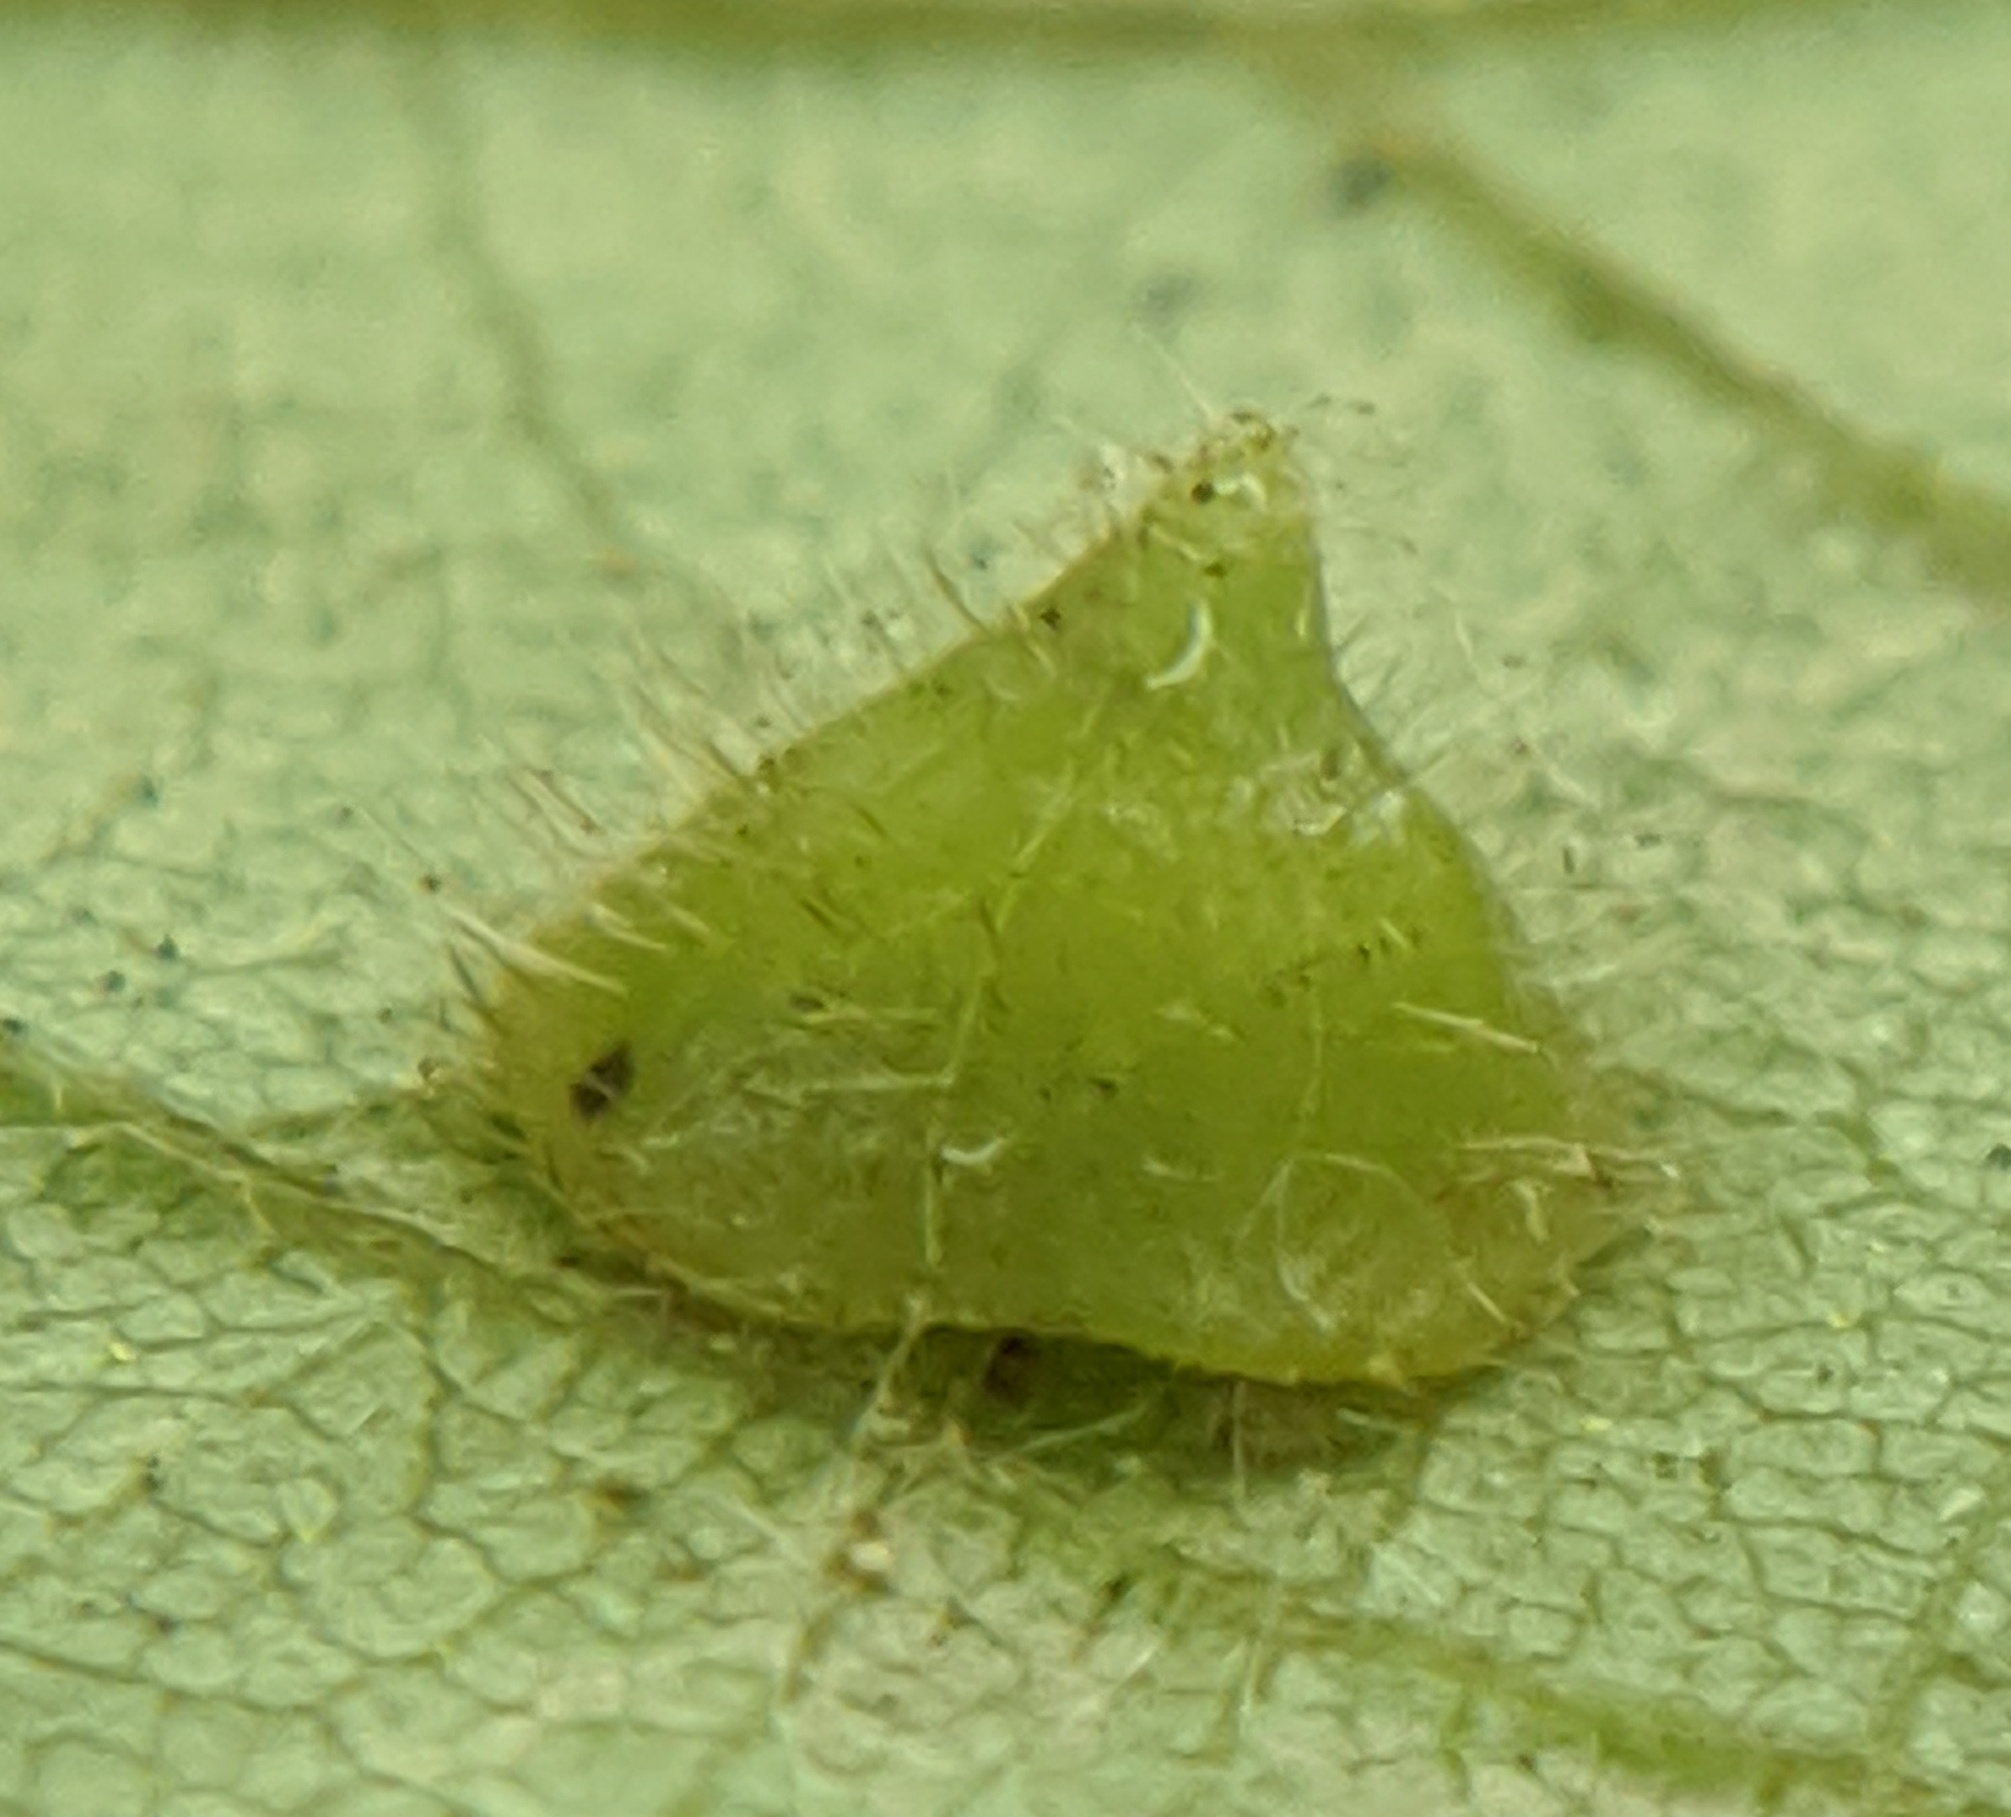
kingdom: Animalia
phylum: Arthropoda
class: Insecta
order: Diptera
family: Cecidomyiidae
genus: Caryomyia
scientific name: Caryomyia marginata
